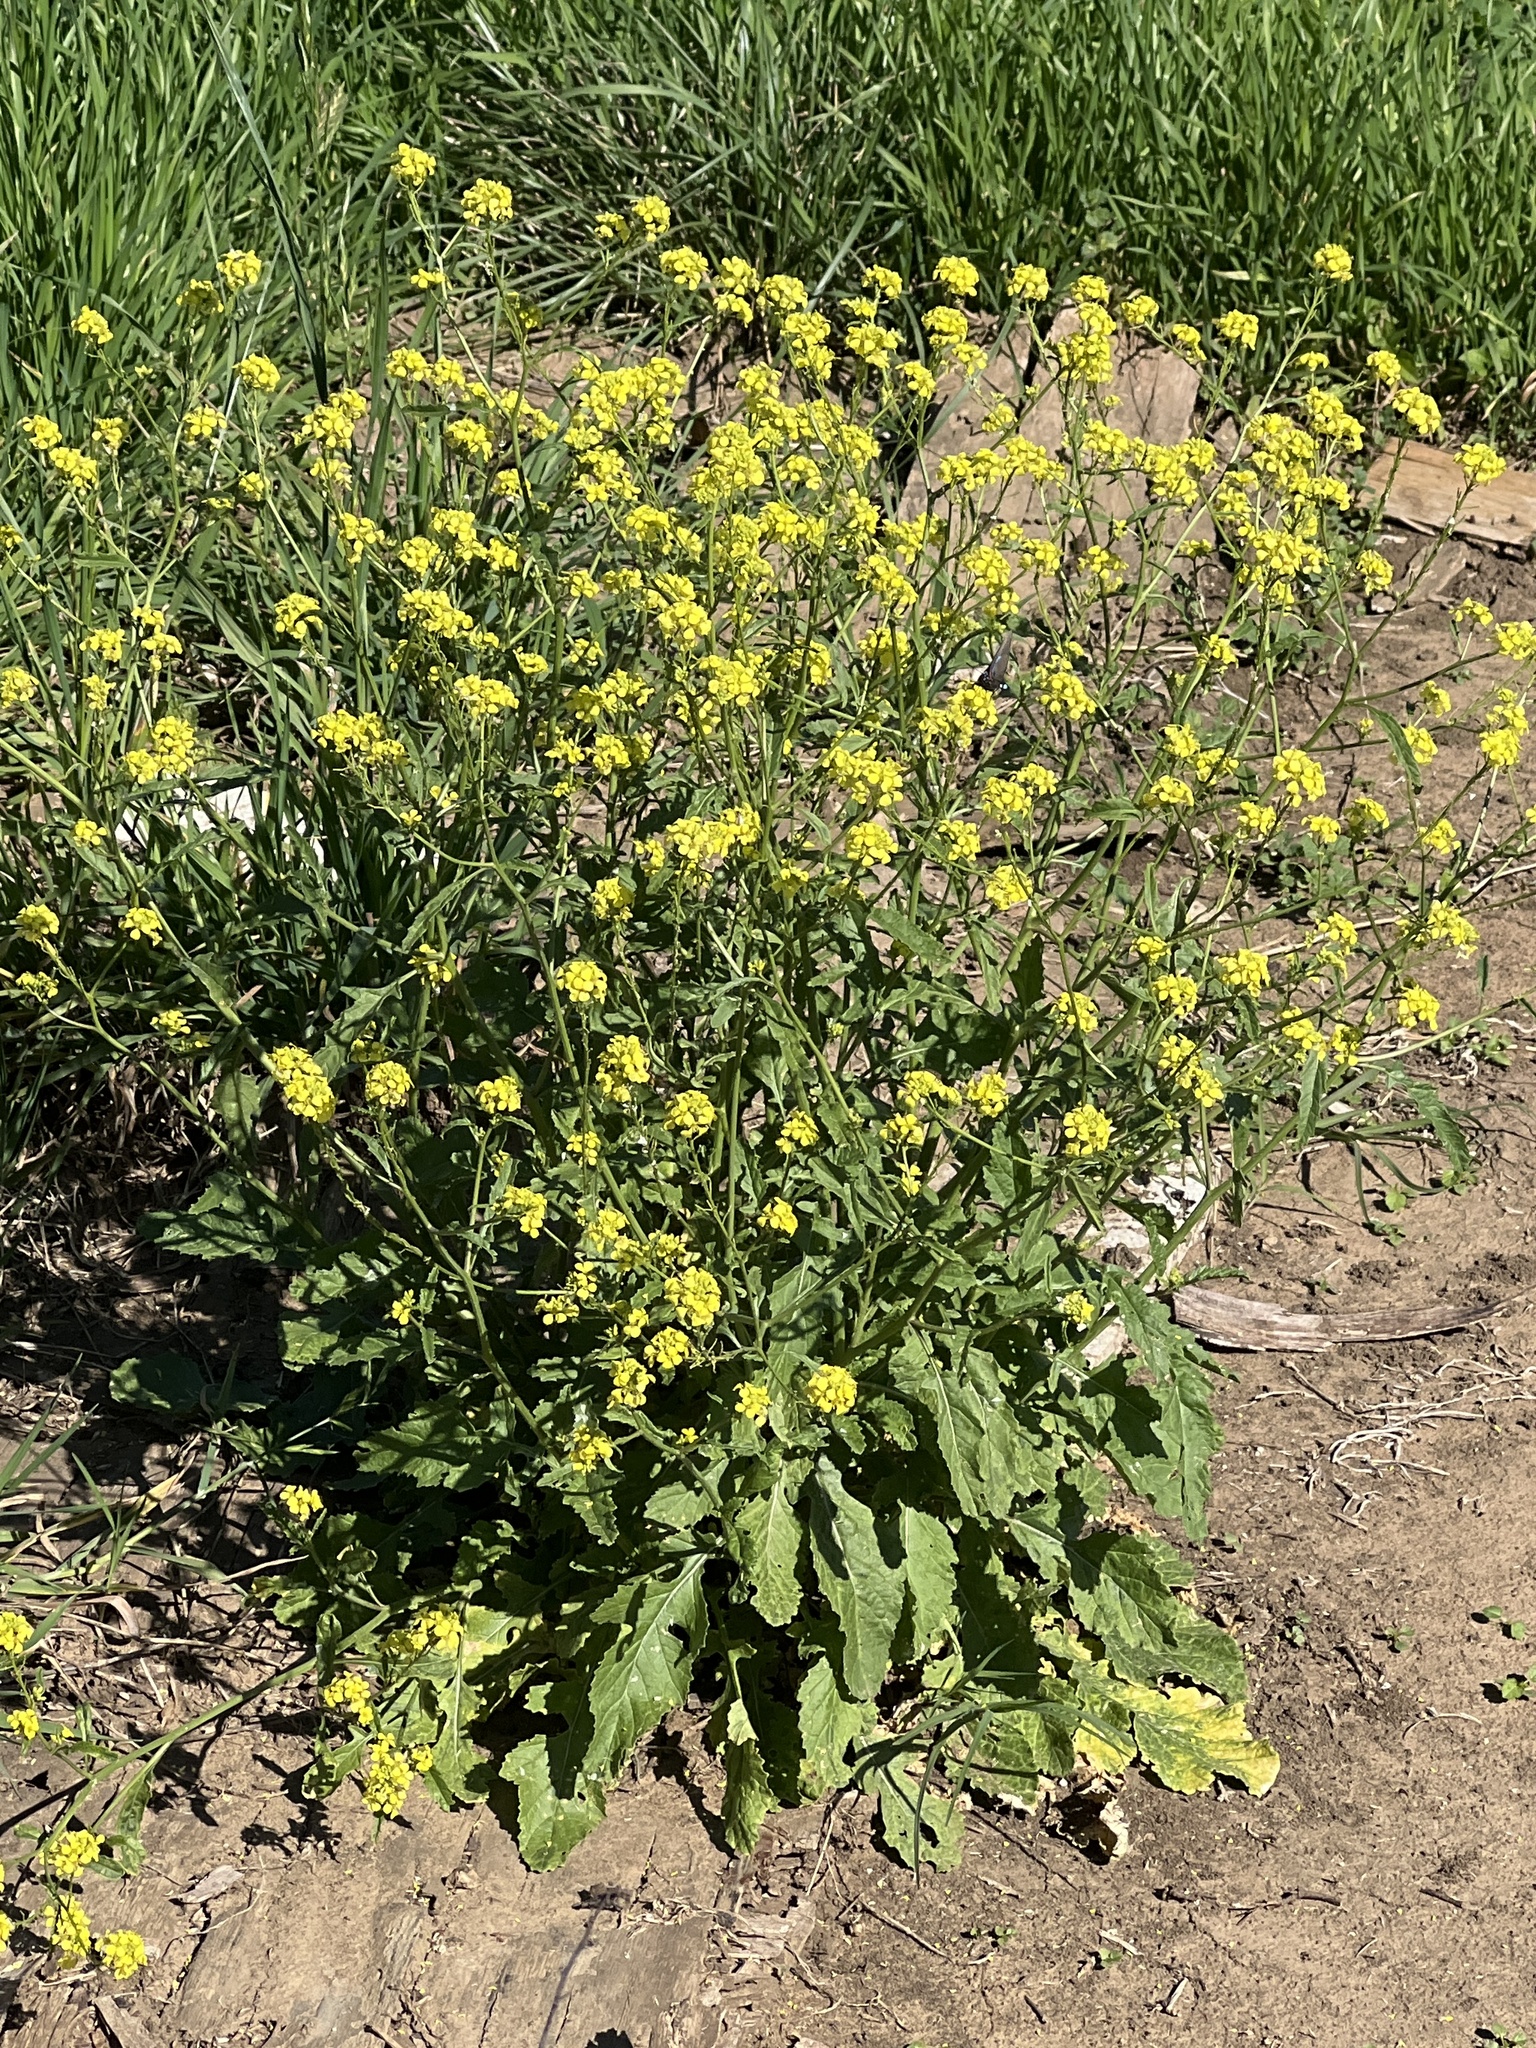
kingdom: Plantae
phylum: Tracheophyta
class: Magnoliopsida
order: Brassicales
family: Brassicaceae
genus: Rapistrum
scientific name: Rapistrum rugosum
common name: Annual bastardcabbage
